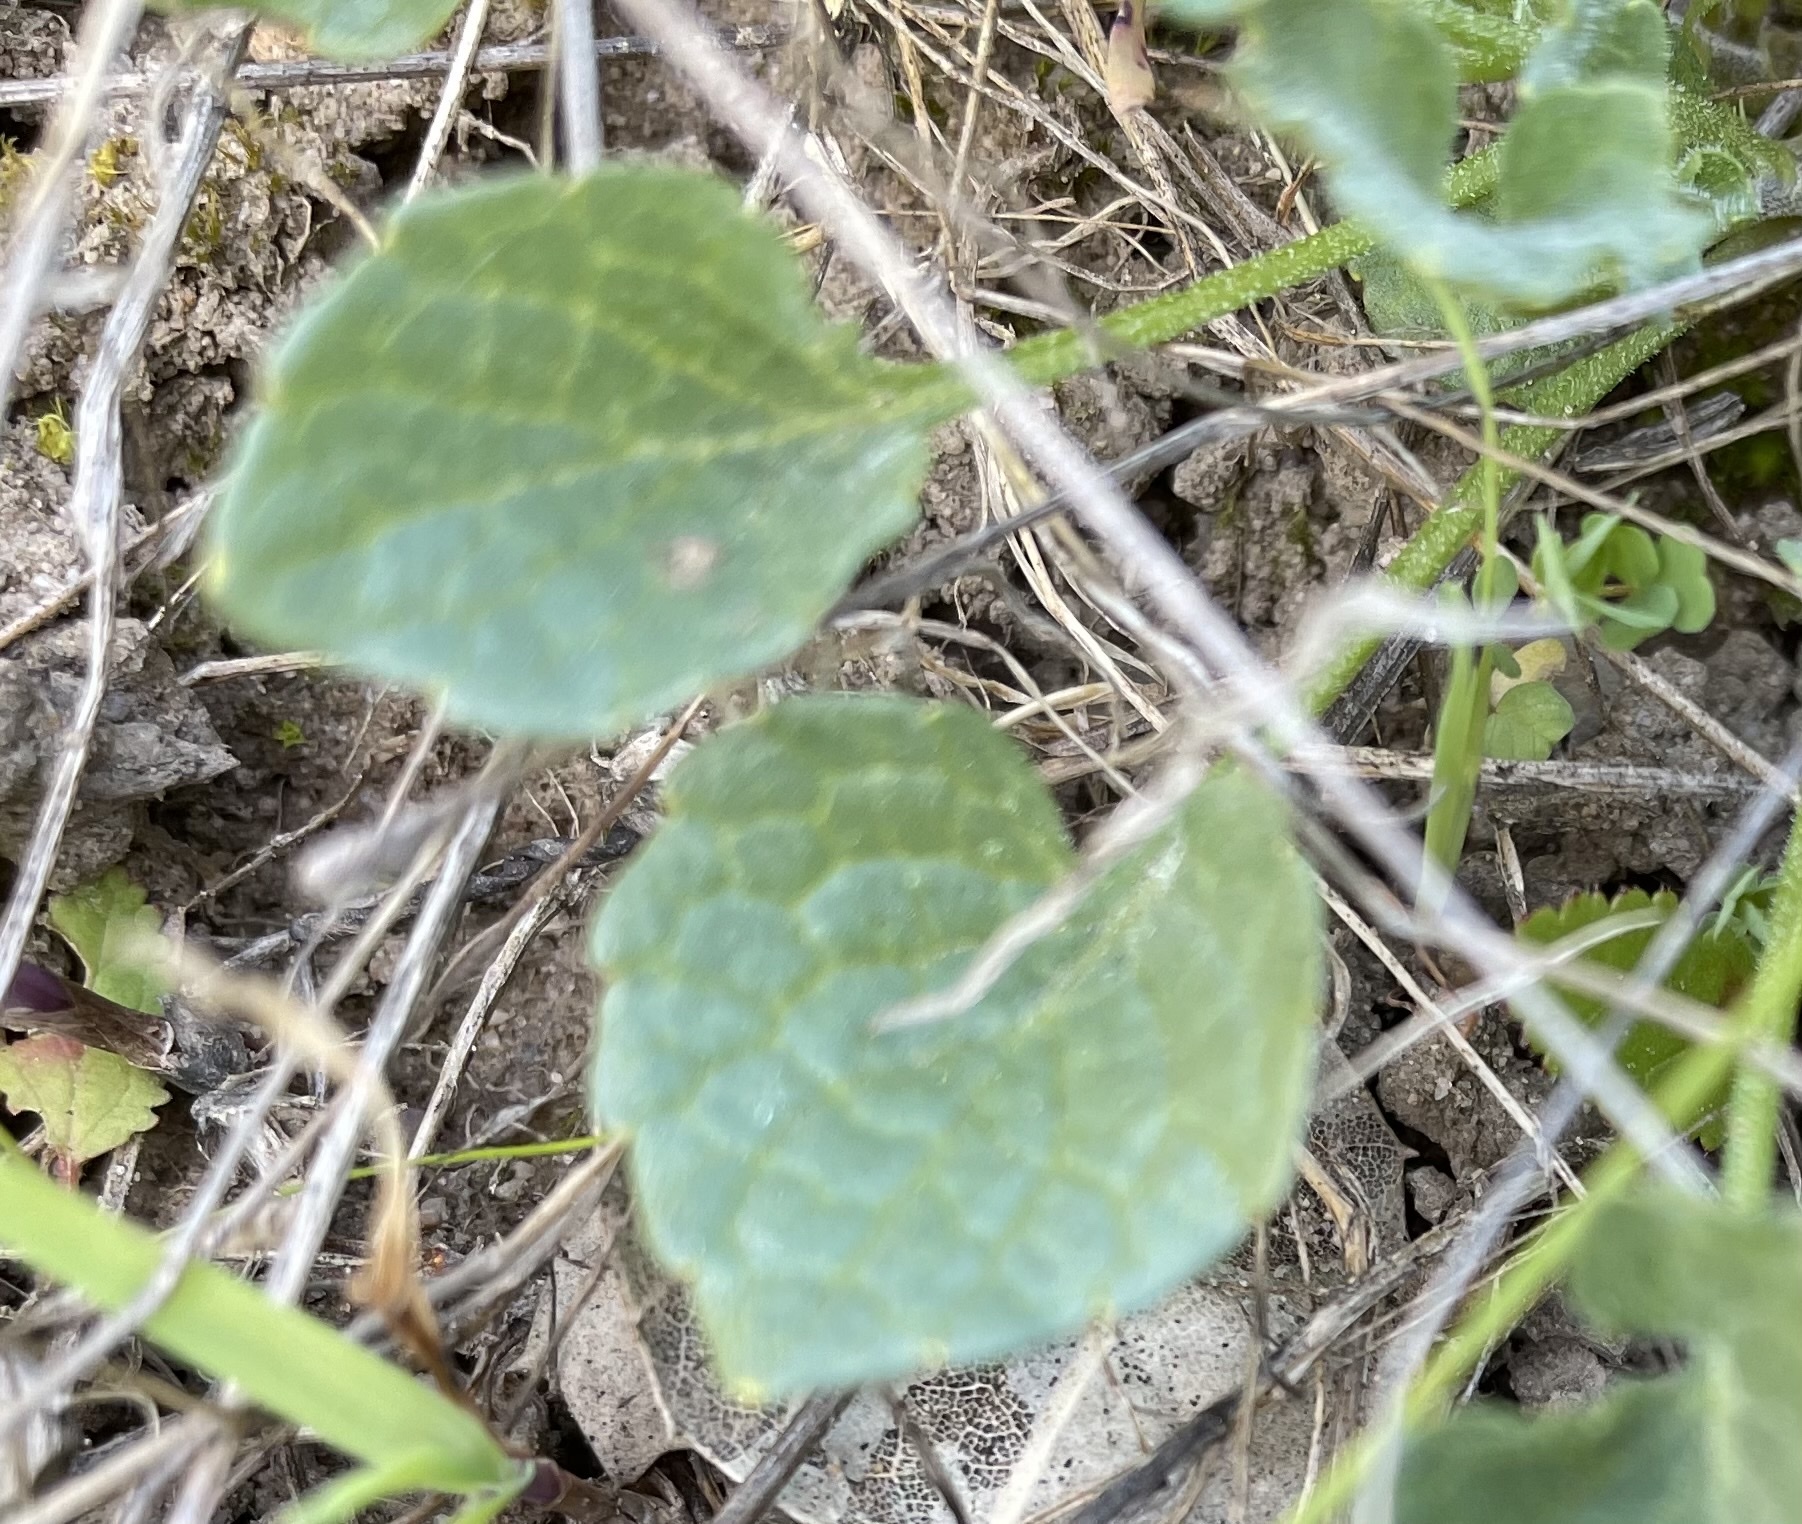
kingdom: Plantae
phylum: Tracheophyta
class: Magnoliopsida
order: Malpighiales
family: Violaceae
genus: Viola
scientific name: Viola pedunculata
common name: California golden violet
